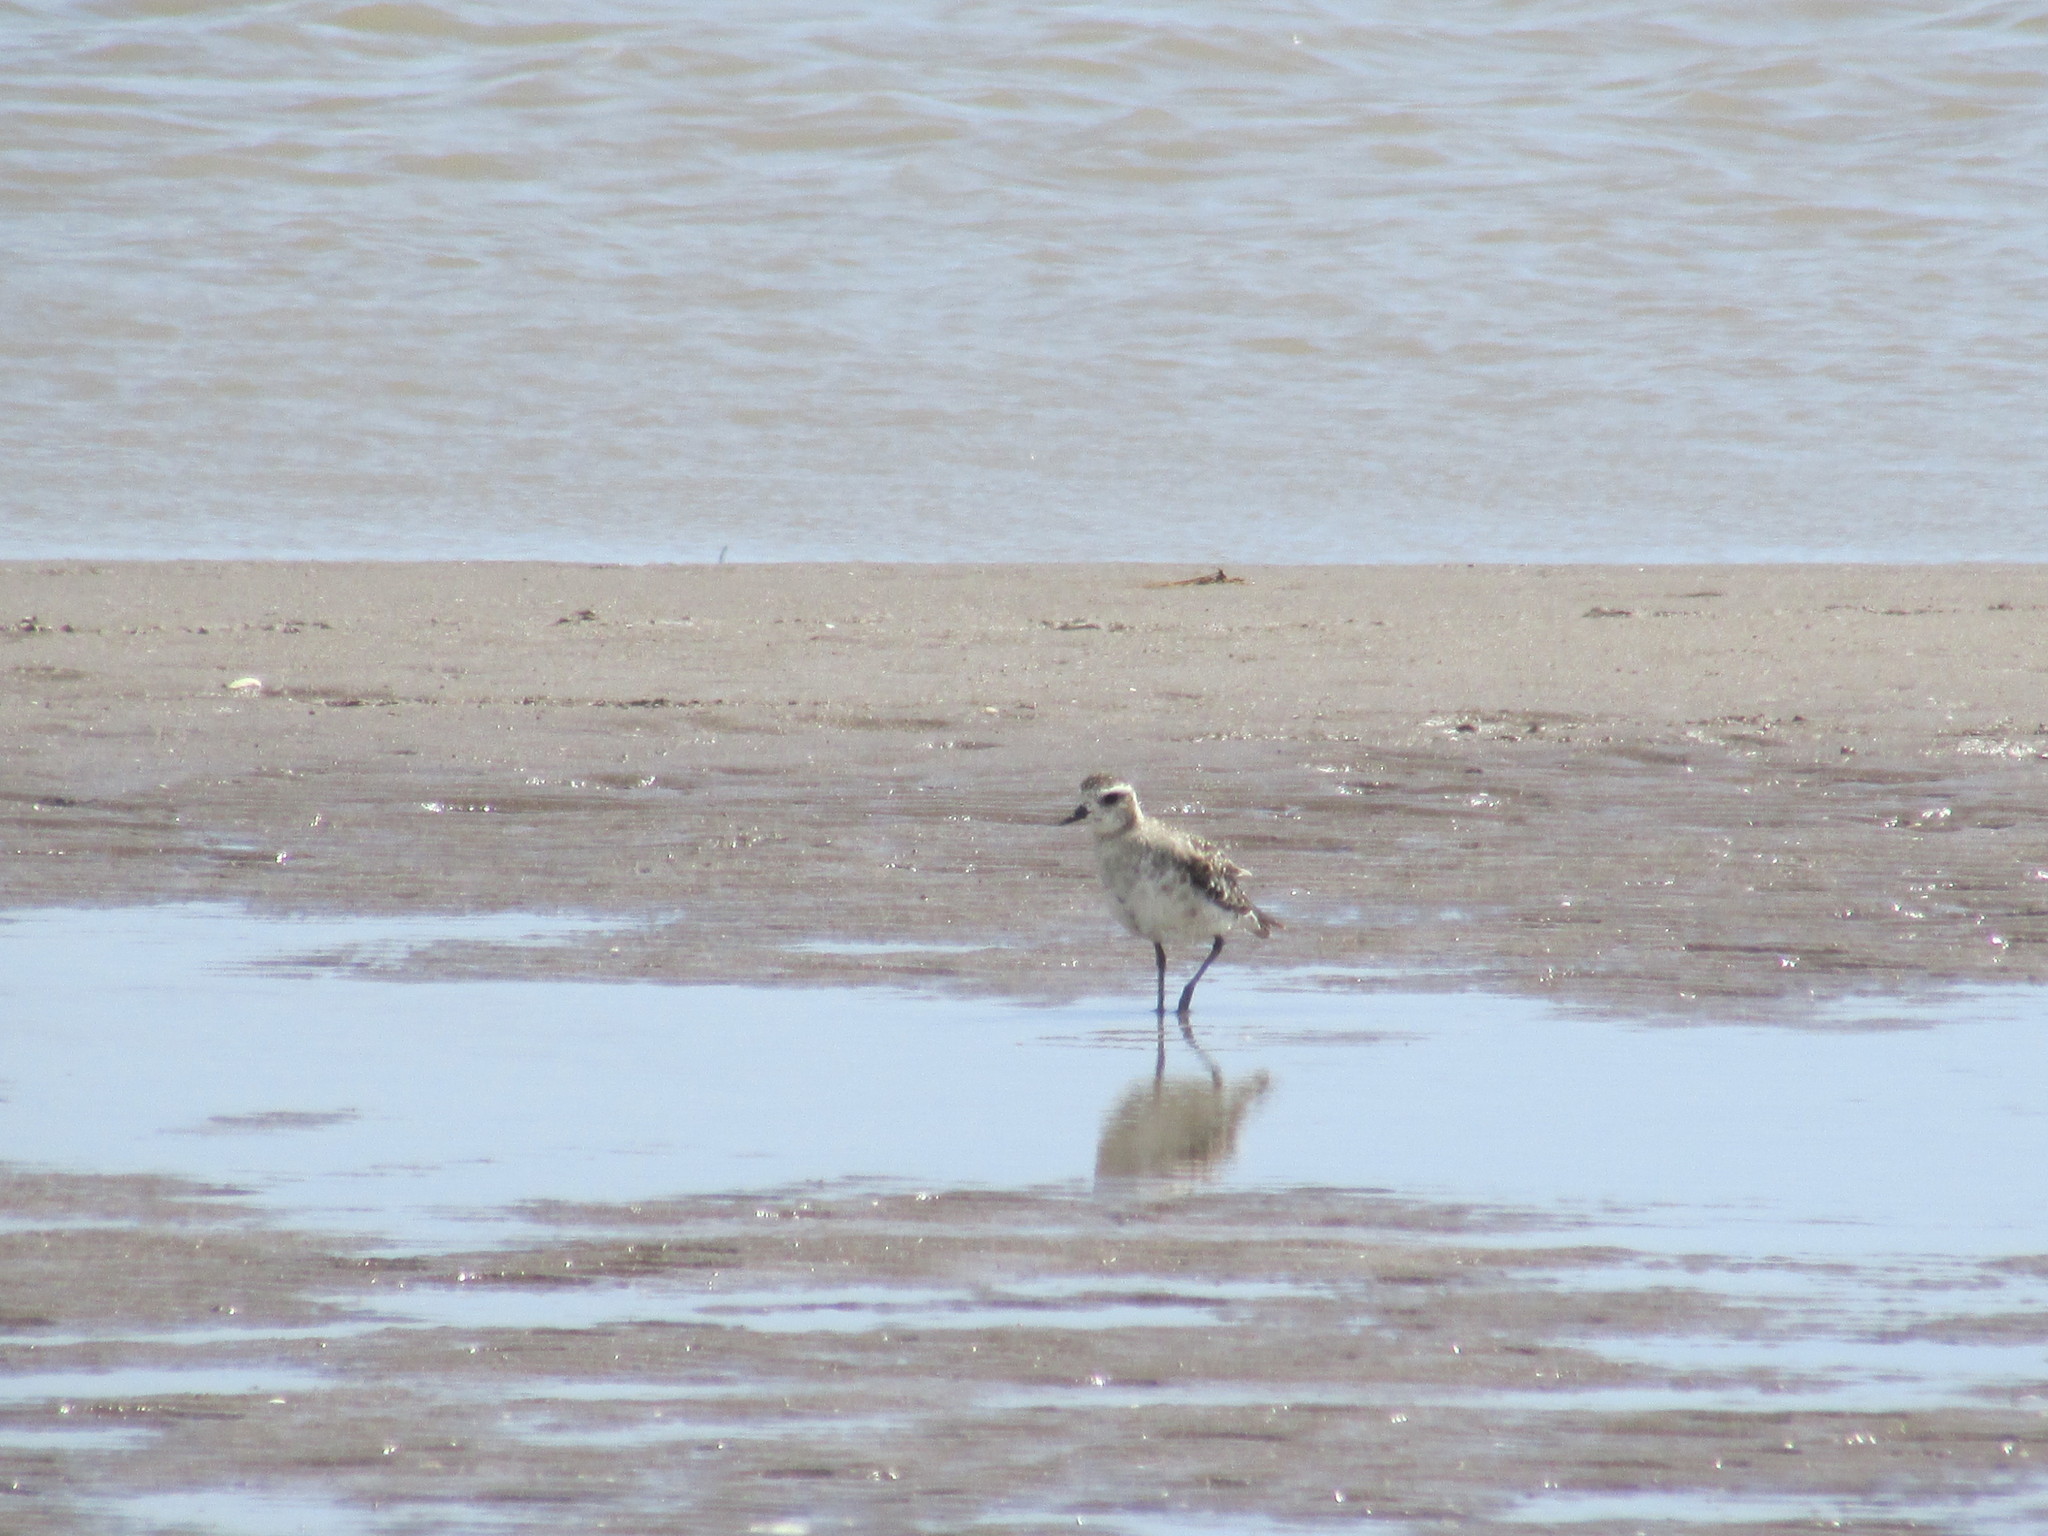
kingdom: Animalia
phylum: Chordata
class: Aves
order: Charadriiformes
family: Charadriidae
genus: Pluvialis
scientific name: Pluvialis dominica
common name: American golden plover
